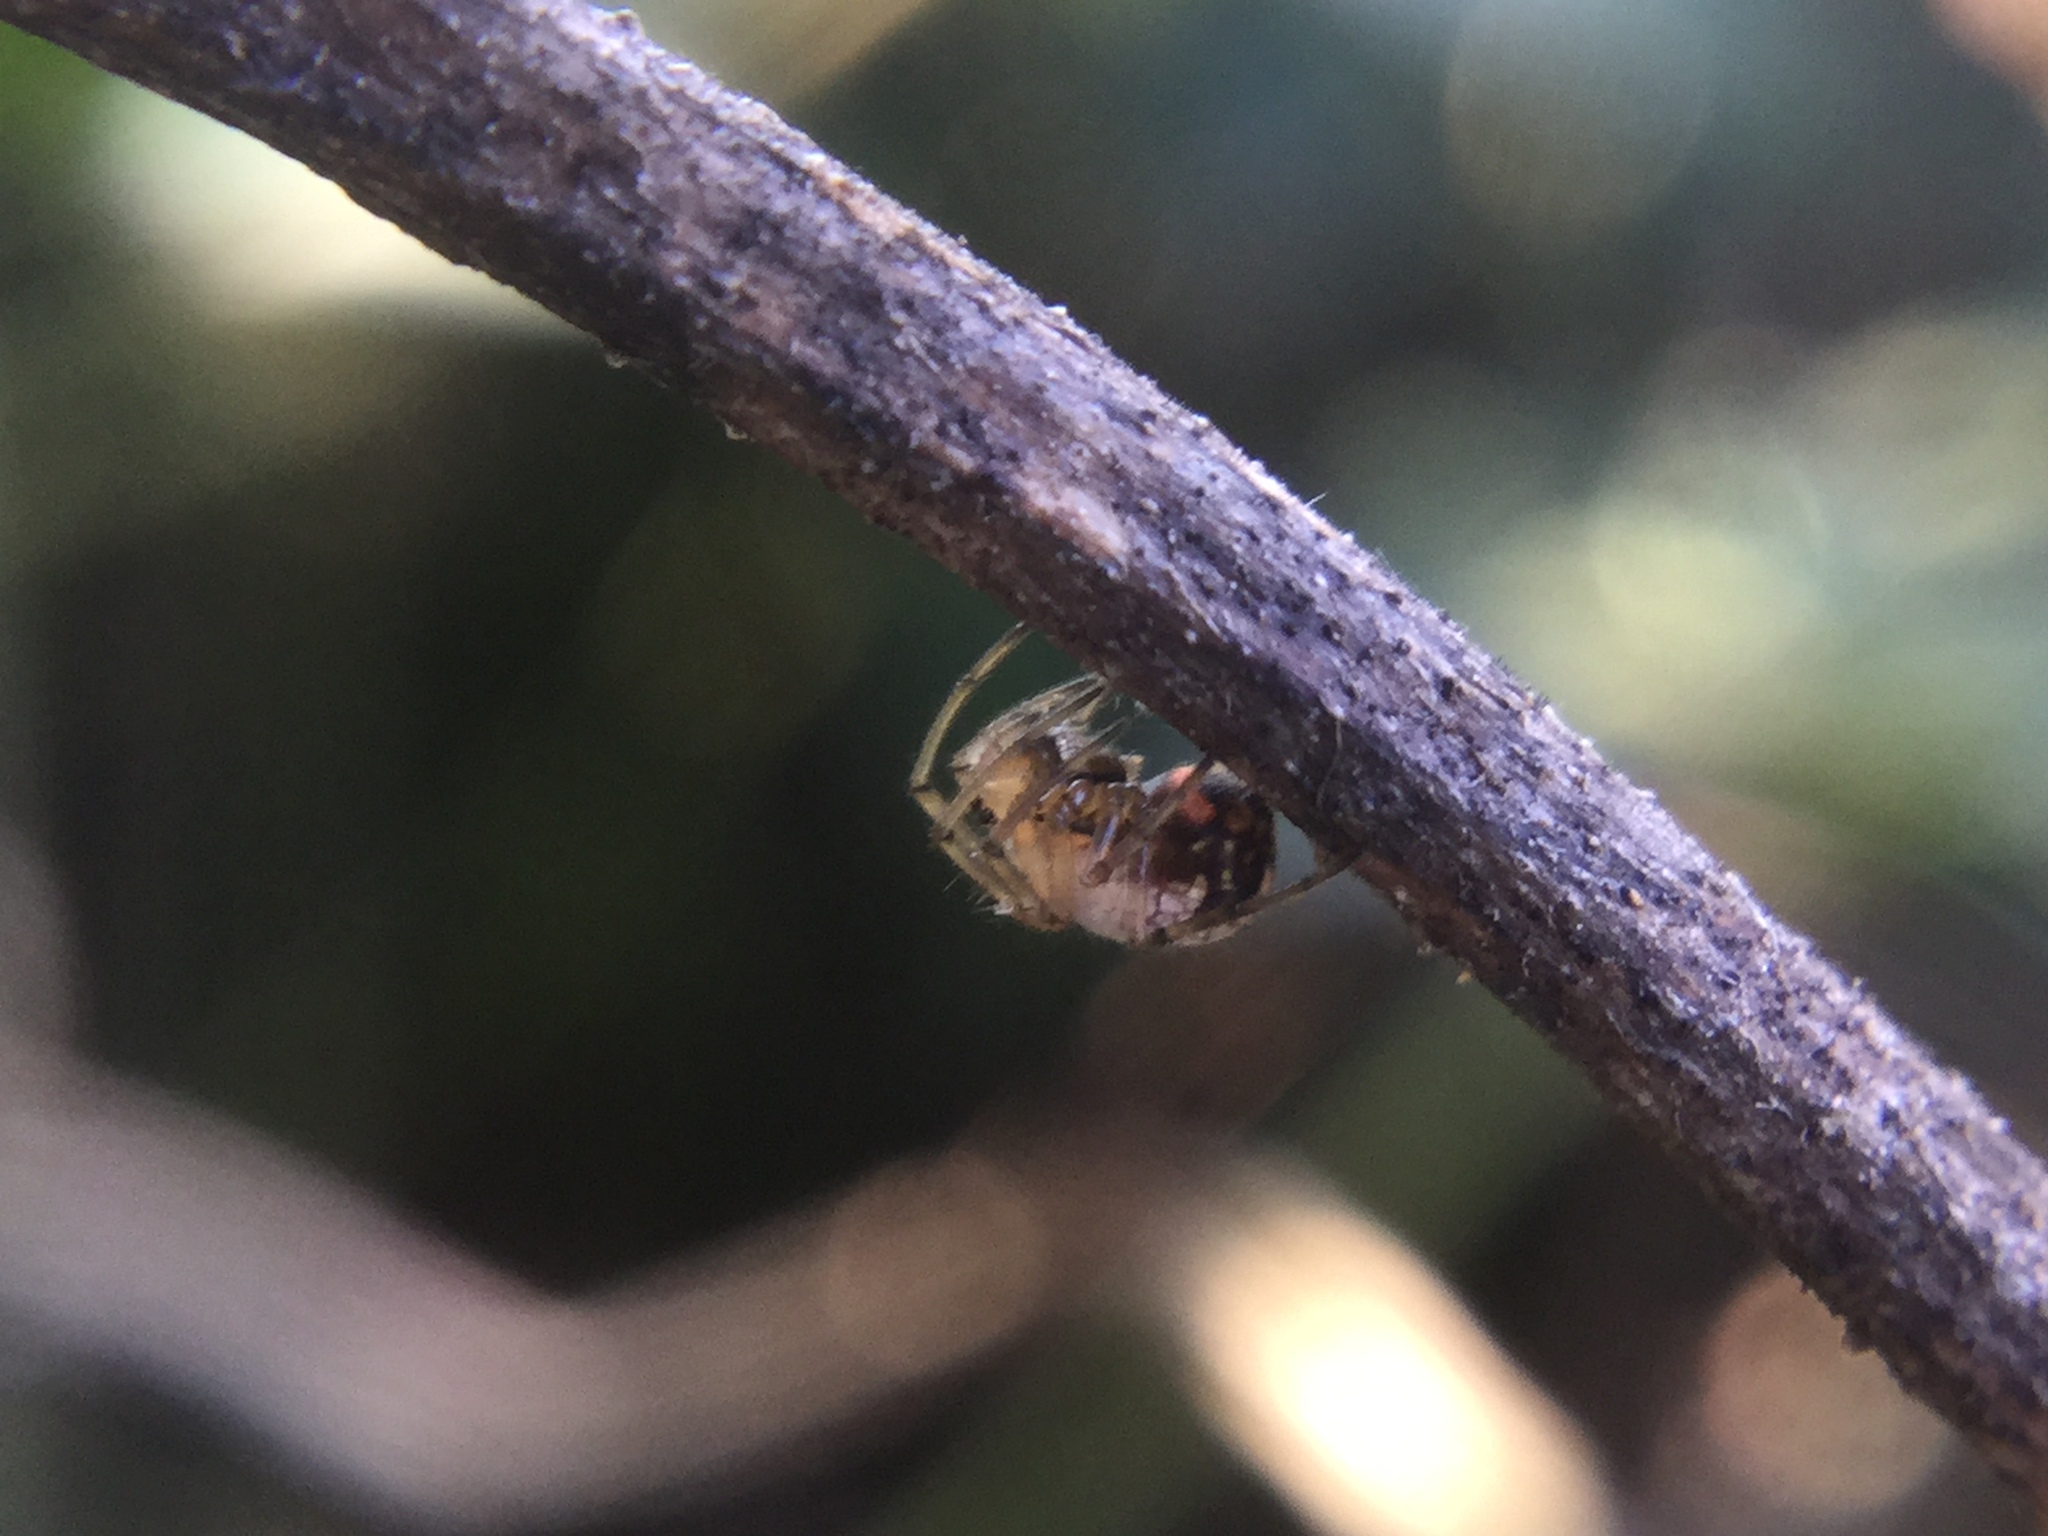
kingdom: Animalia
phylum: Arthropoda
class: Arachnida
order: Araneae
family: Tetragnathidae
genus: Leucauge
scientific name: Leucauge venusta
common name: Longjawed orb weavers
